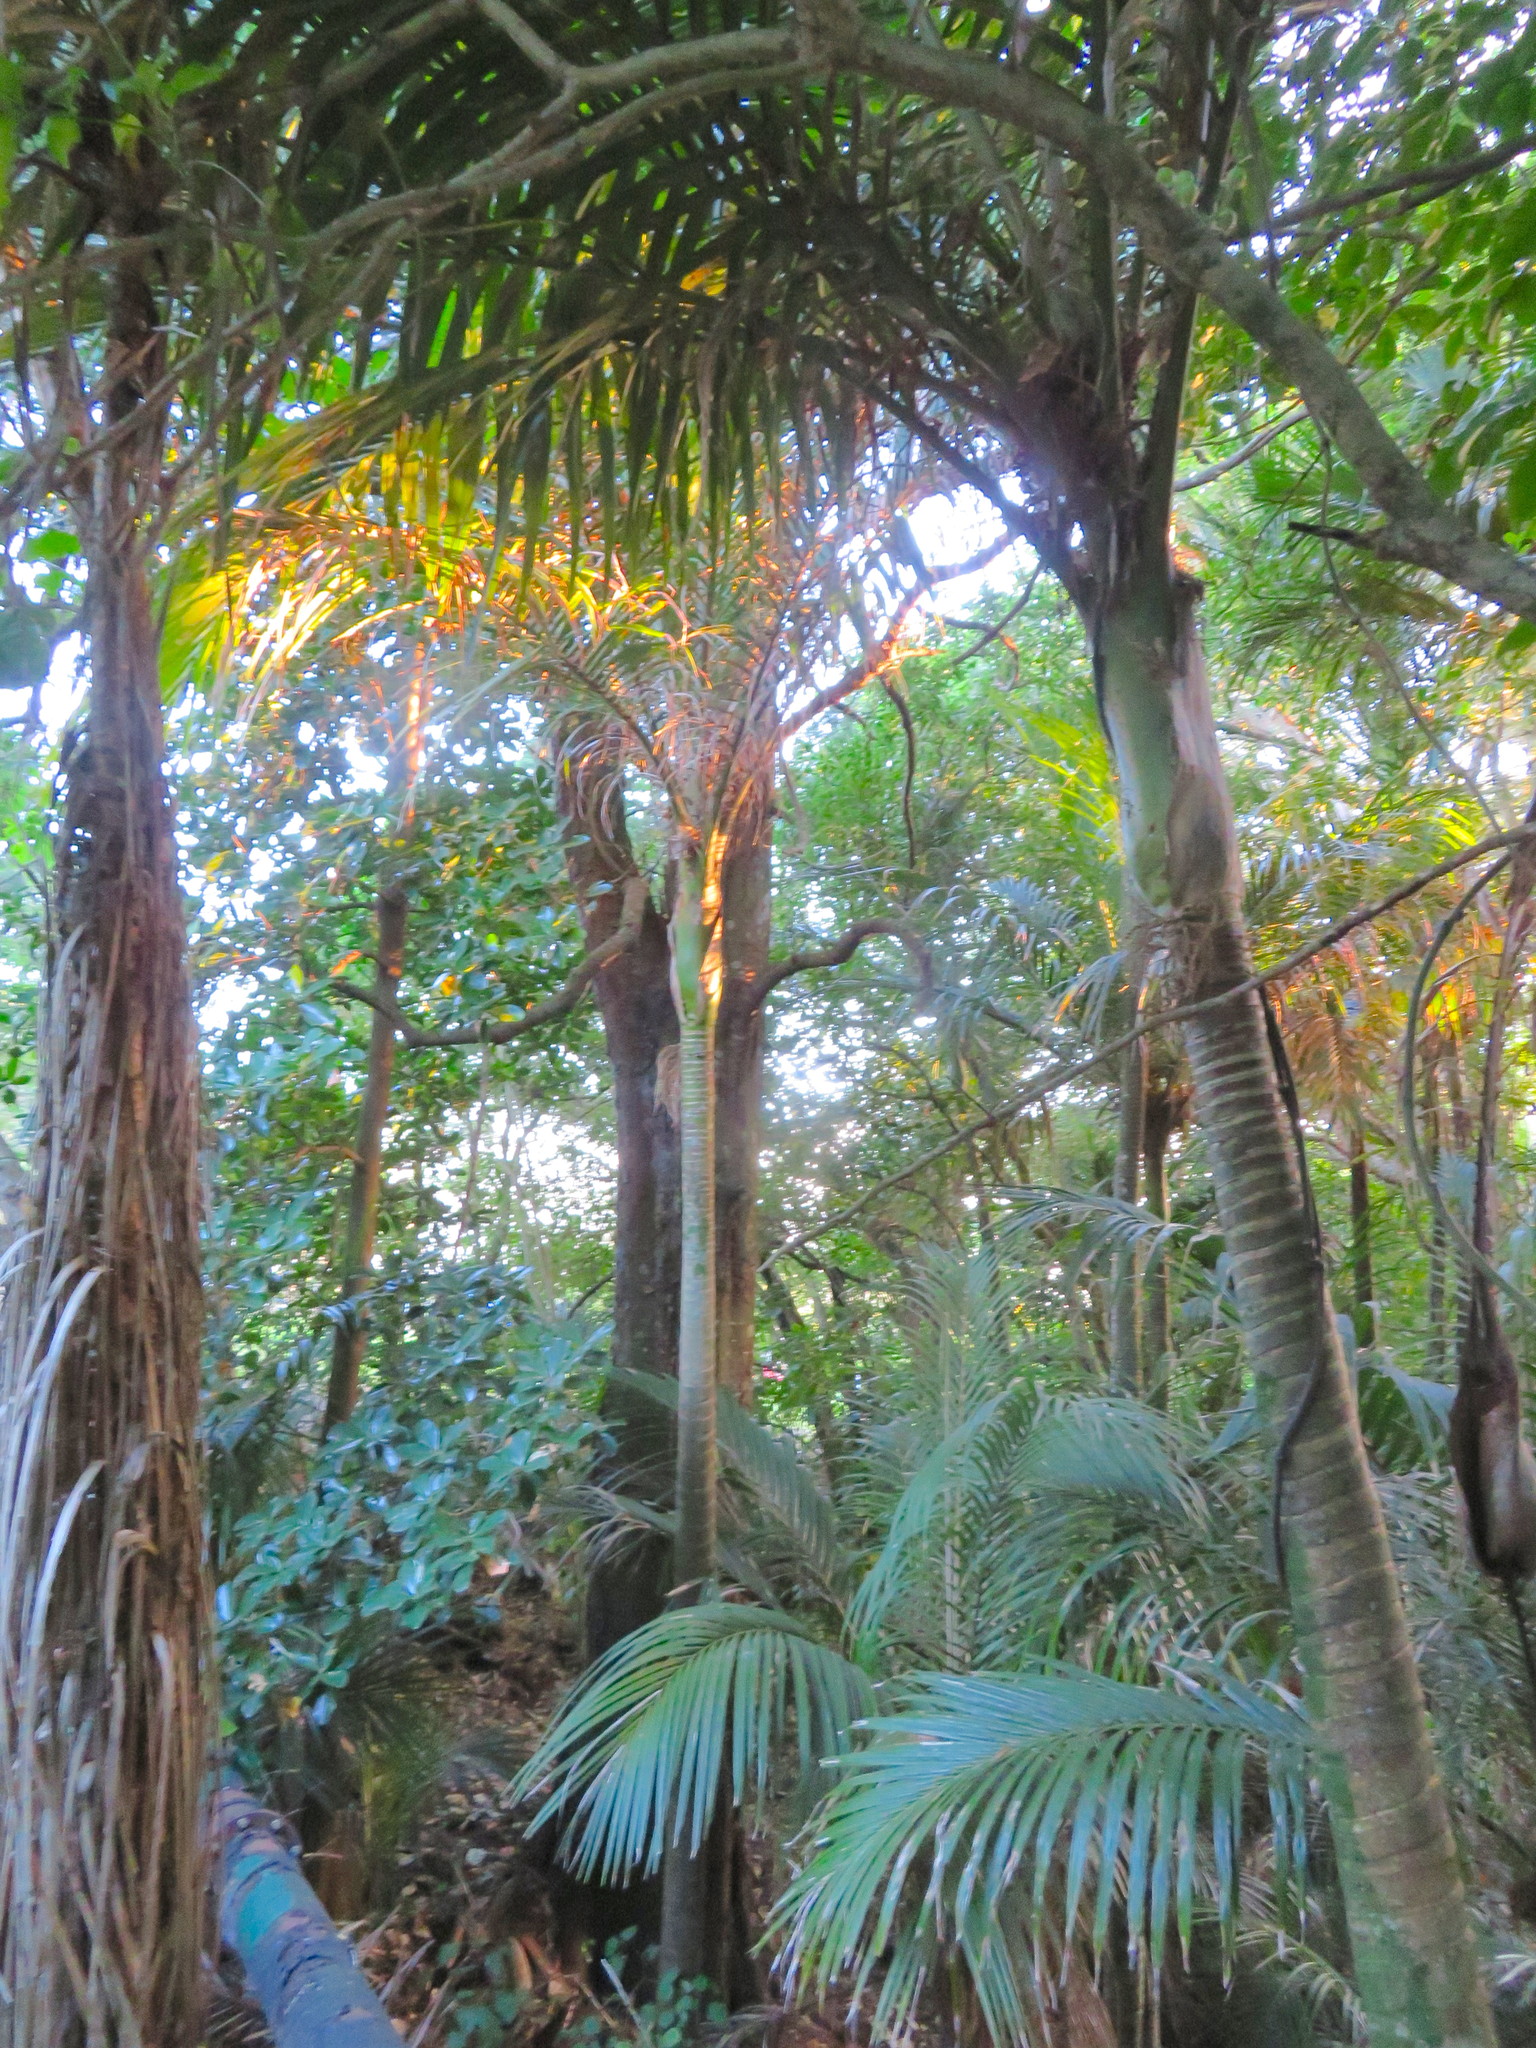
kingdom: Plantae
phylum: Tracheophyta
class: Liliopsida
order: Arecales
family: Arecaceae
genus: Rhopalostylis
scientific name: Rhopalostylis sapida
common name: Feather-duster palm
